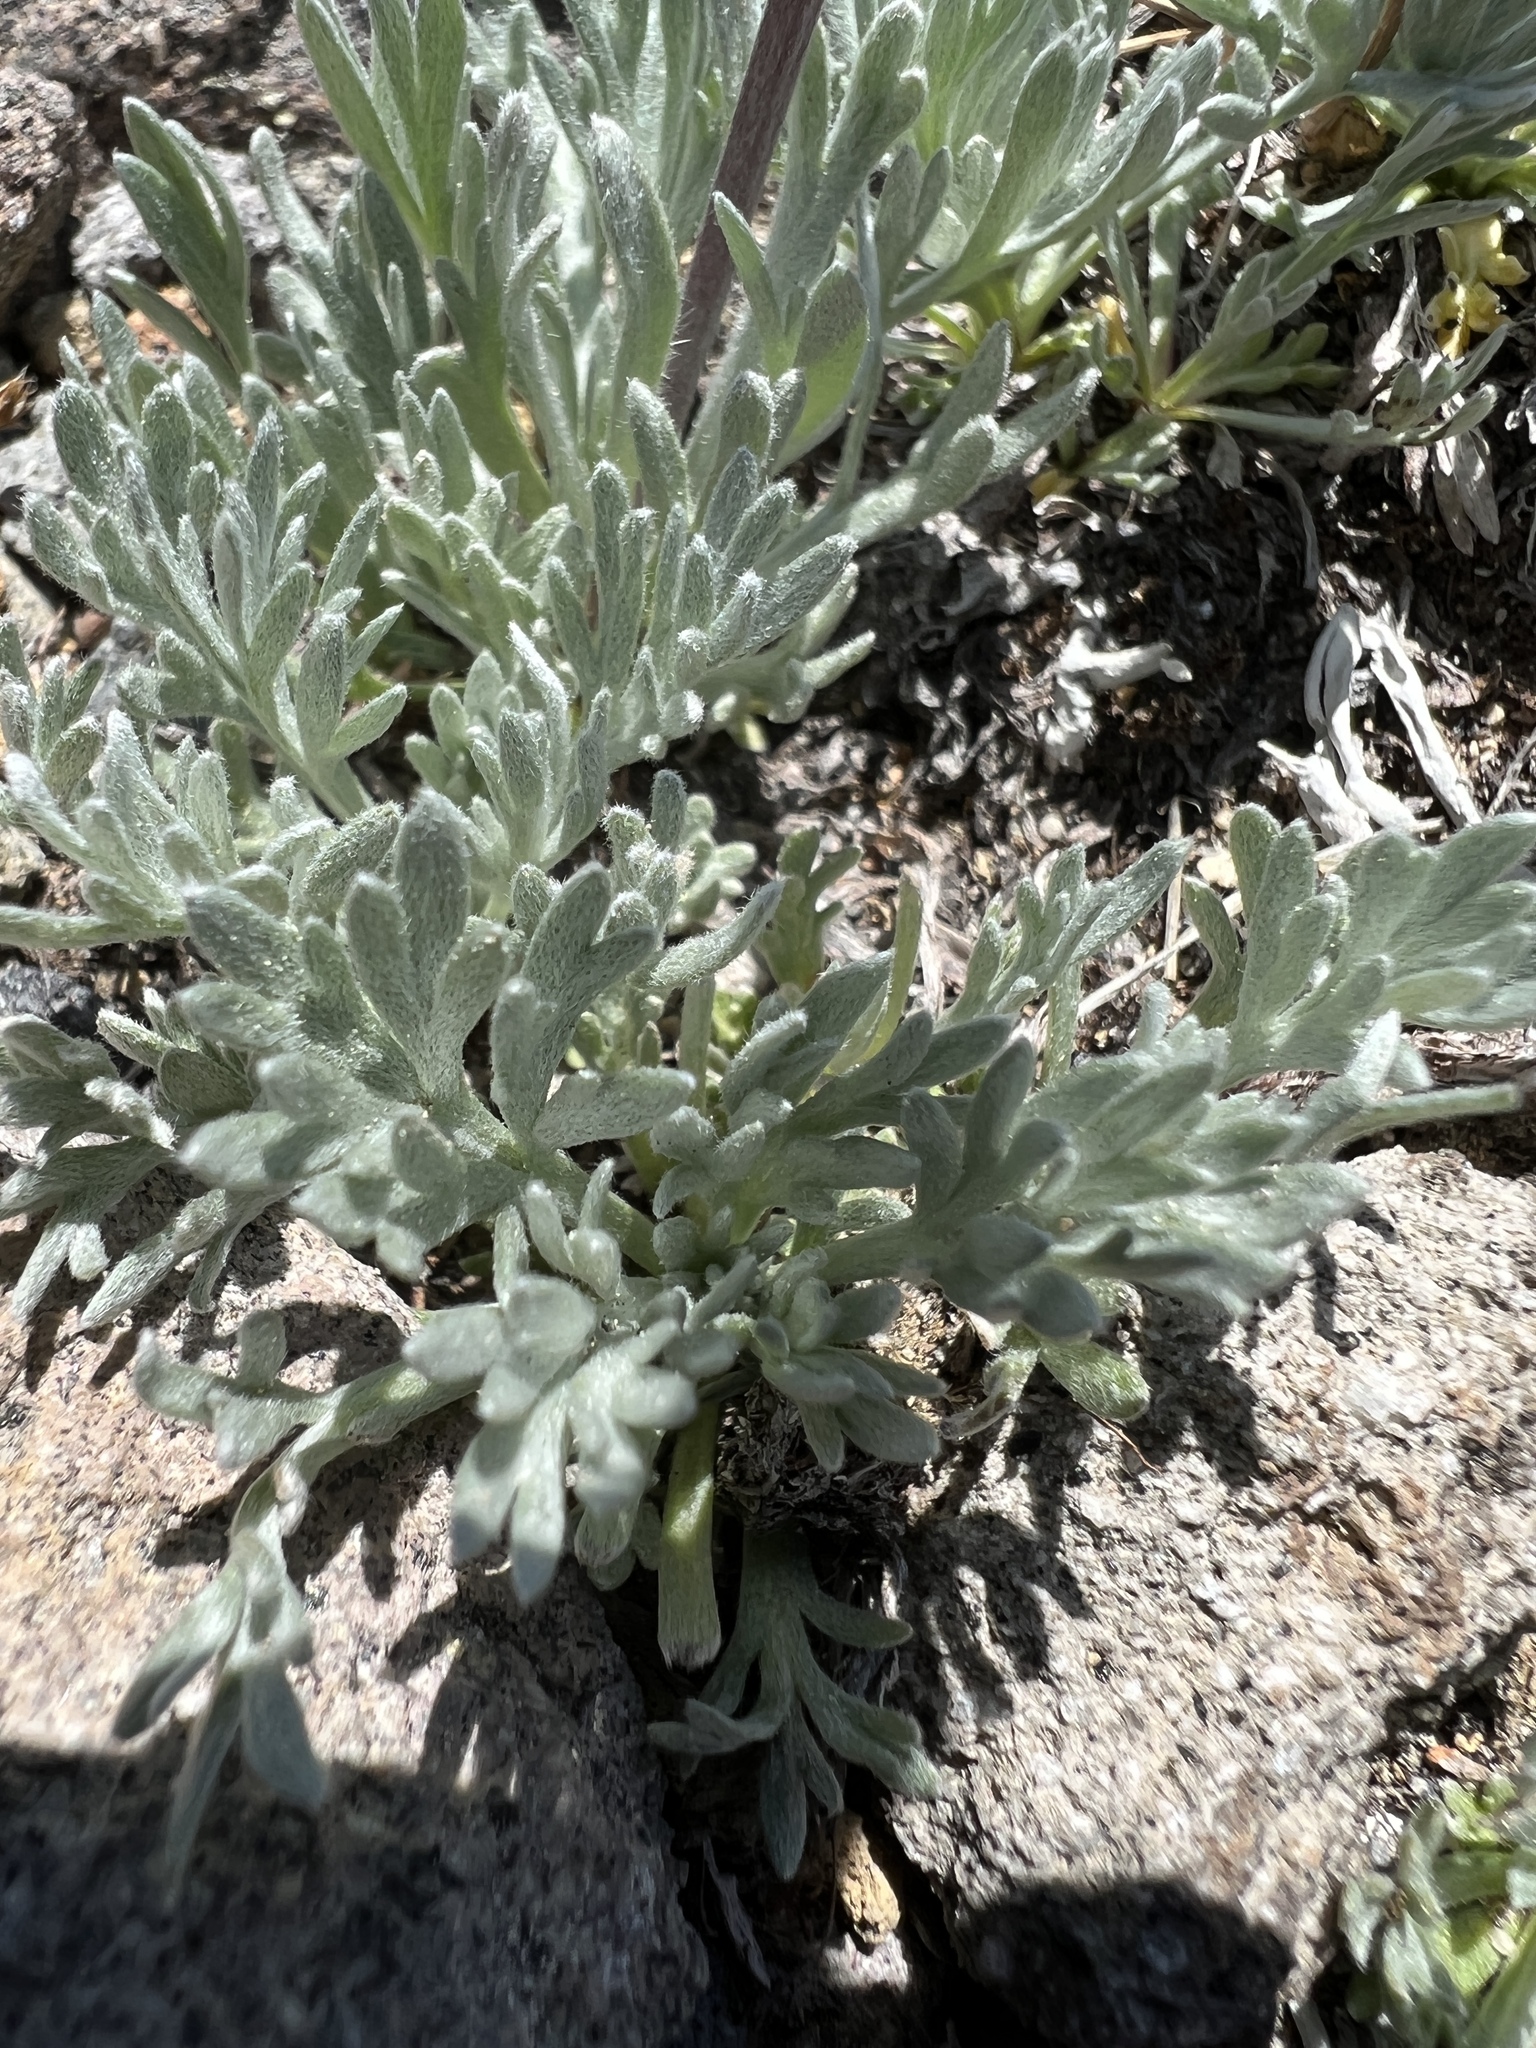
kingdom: Plantae
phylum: Tracheophyta
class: Magnoliopsida
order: Asterales
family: Asteraceae
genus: Artemisia
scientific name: Artemisia furcata
